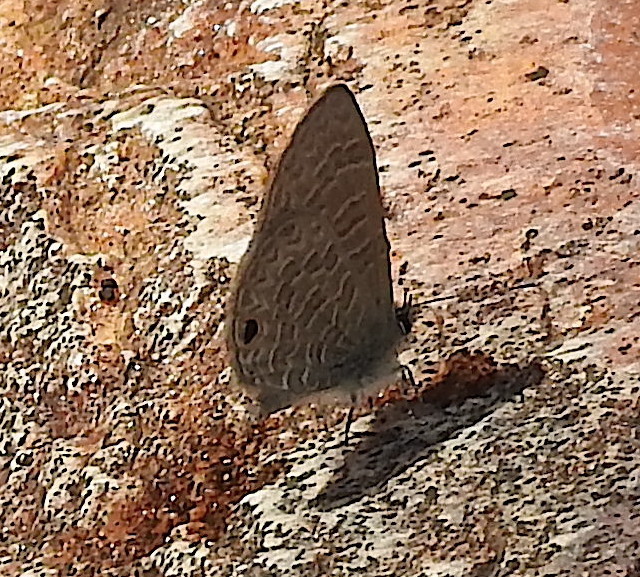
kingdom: Animalia
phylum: Arthropoda
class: Insecta
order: Lepidoptera
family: Lycaenidae
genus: Prosotas
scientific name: Prosotas dubiosa
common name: Tailless lineblue
